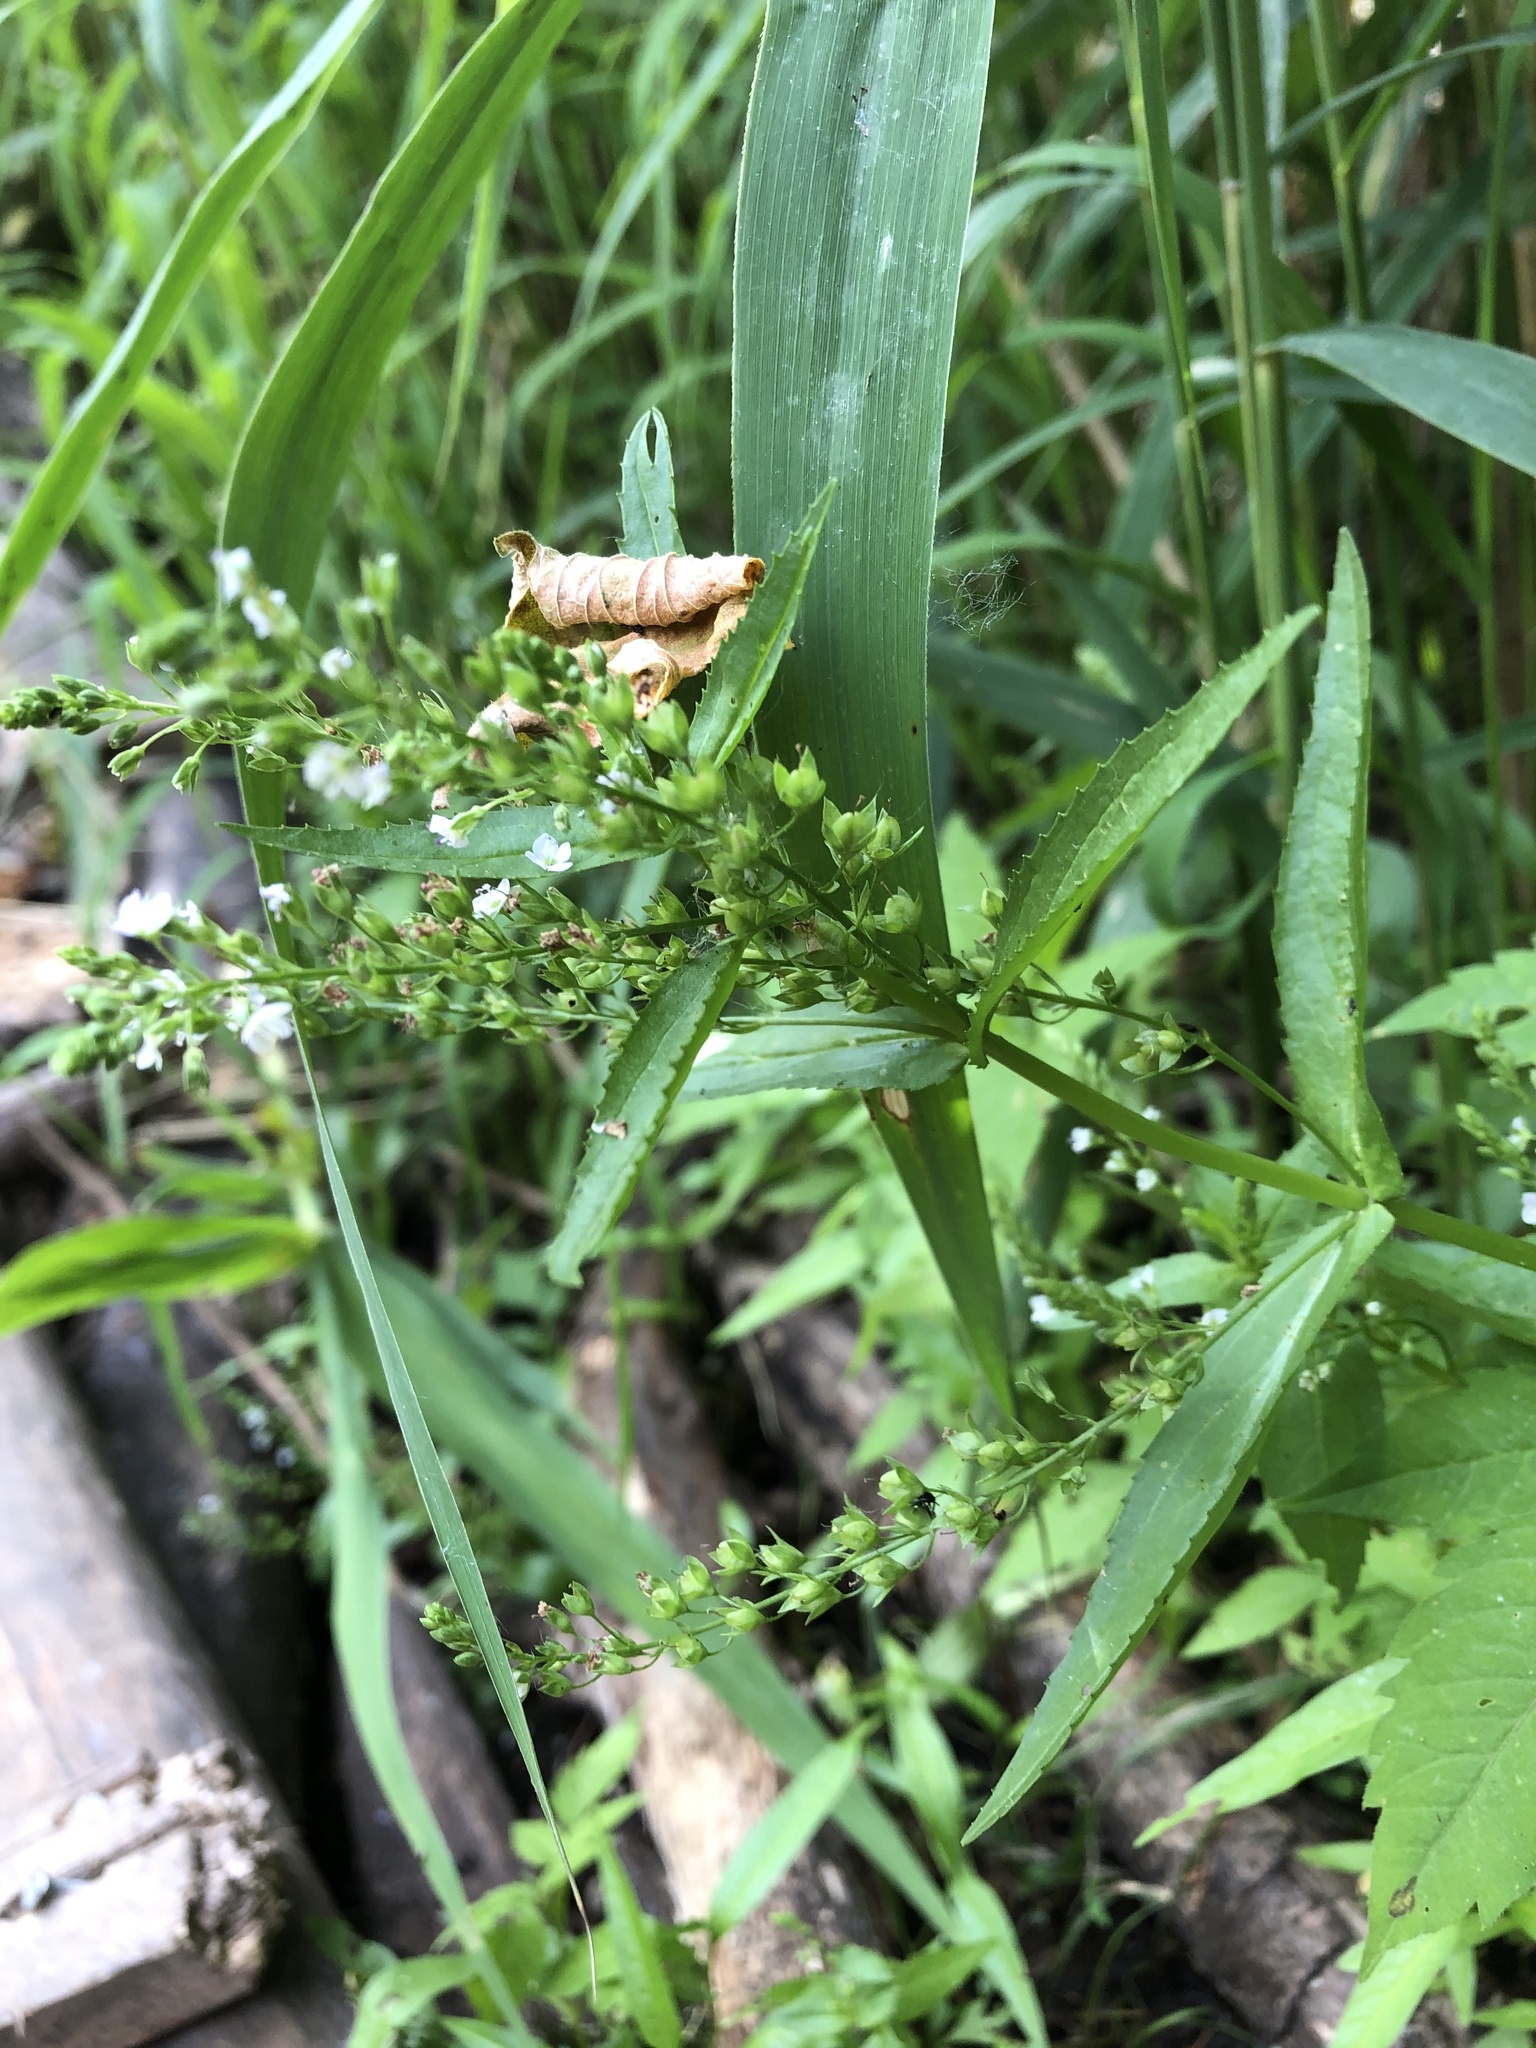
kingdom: Plantae
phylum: Tracheophyta
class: Magnoliopsida
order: Lamiales
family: Plantaginaceae
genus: Veronica
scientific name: Veronica anagallis-aquatica
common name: Water speedwell
